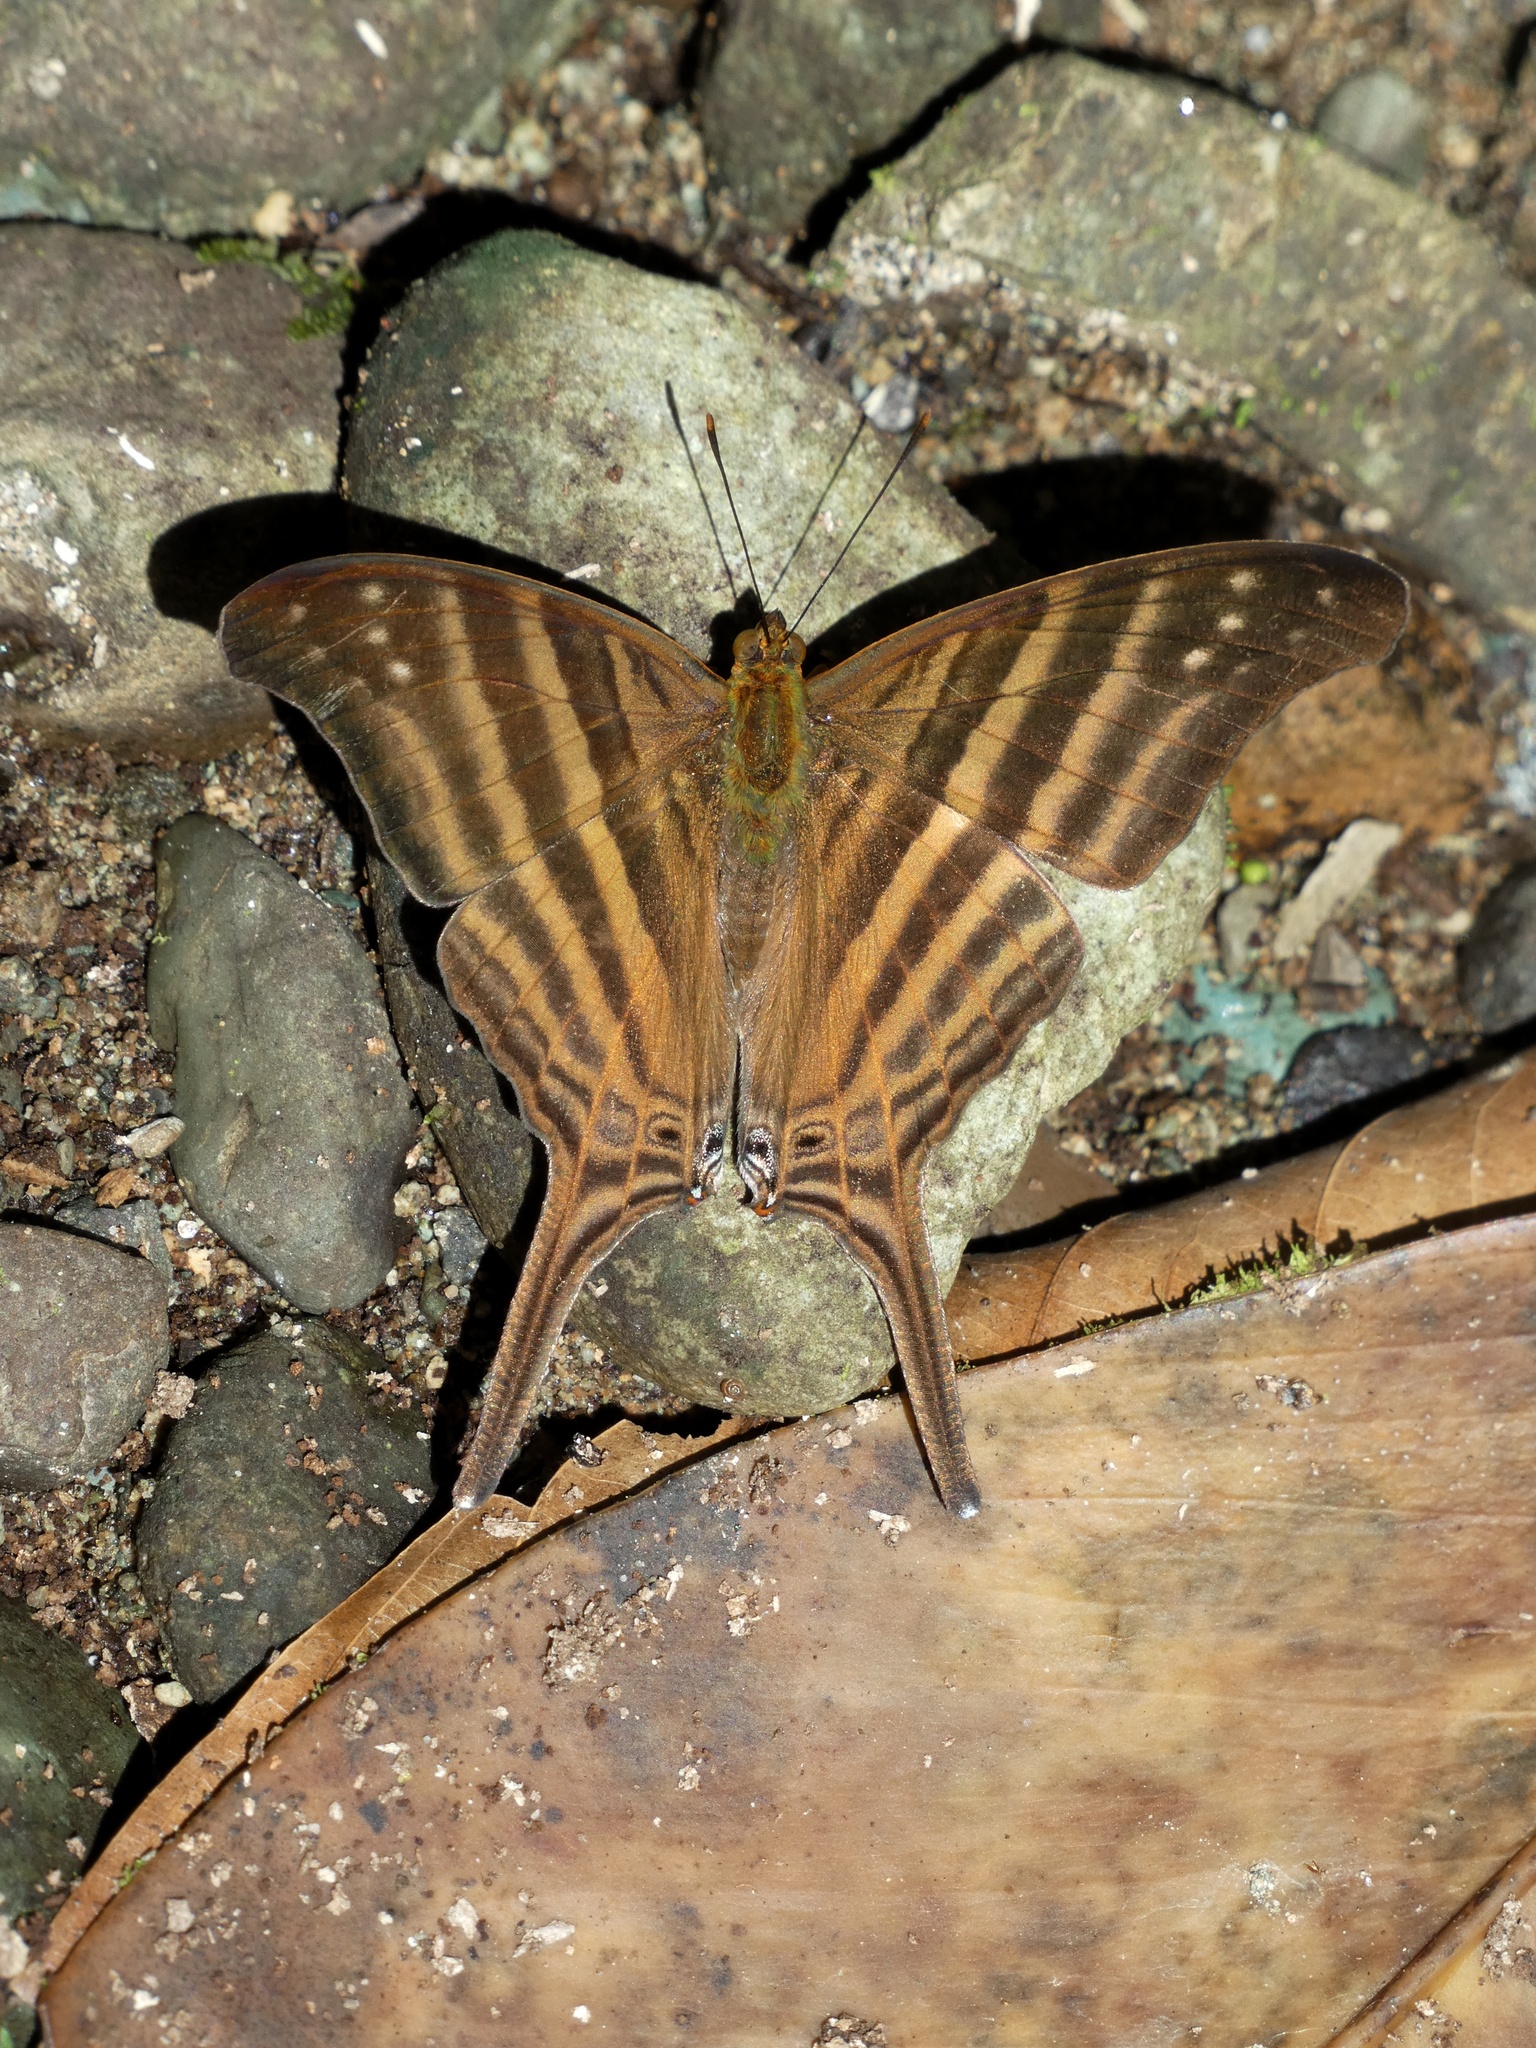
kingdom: Animalia
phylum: Arthropoda
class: Insecta
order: Lepidoptera
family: Nymphalidae
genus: Marpesia
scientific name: Marpesia chiron
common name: Many-banded daggerwing
